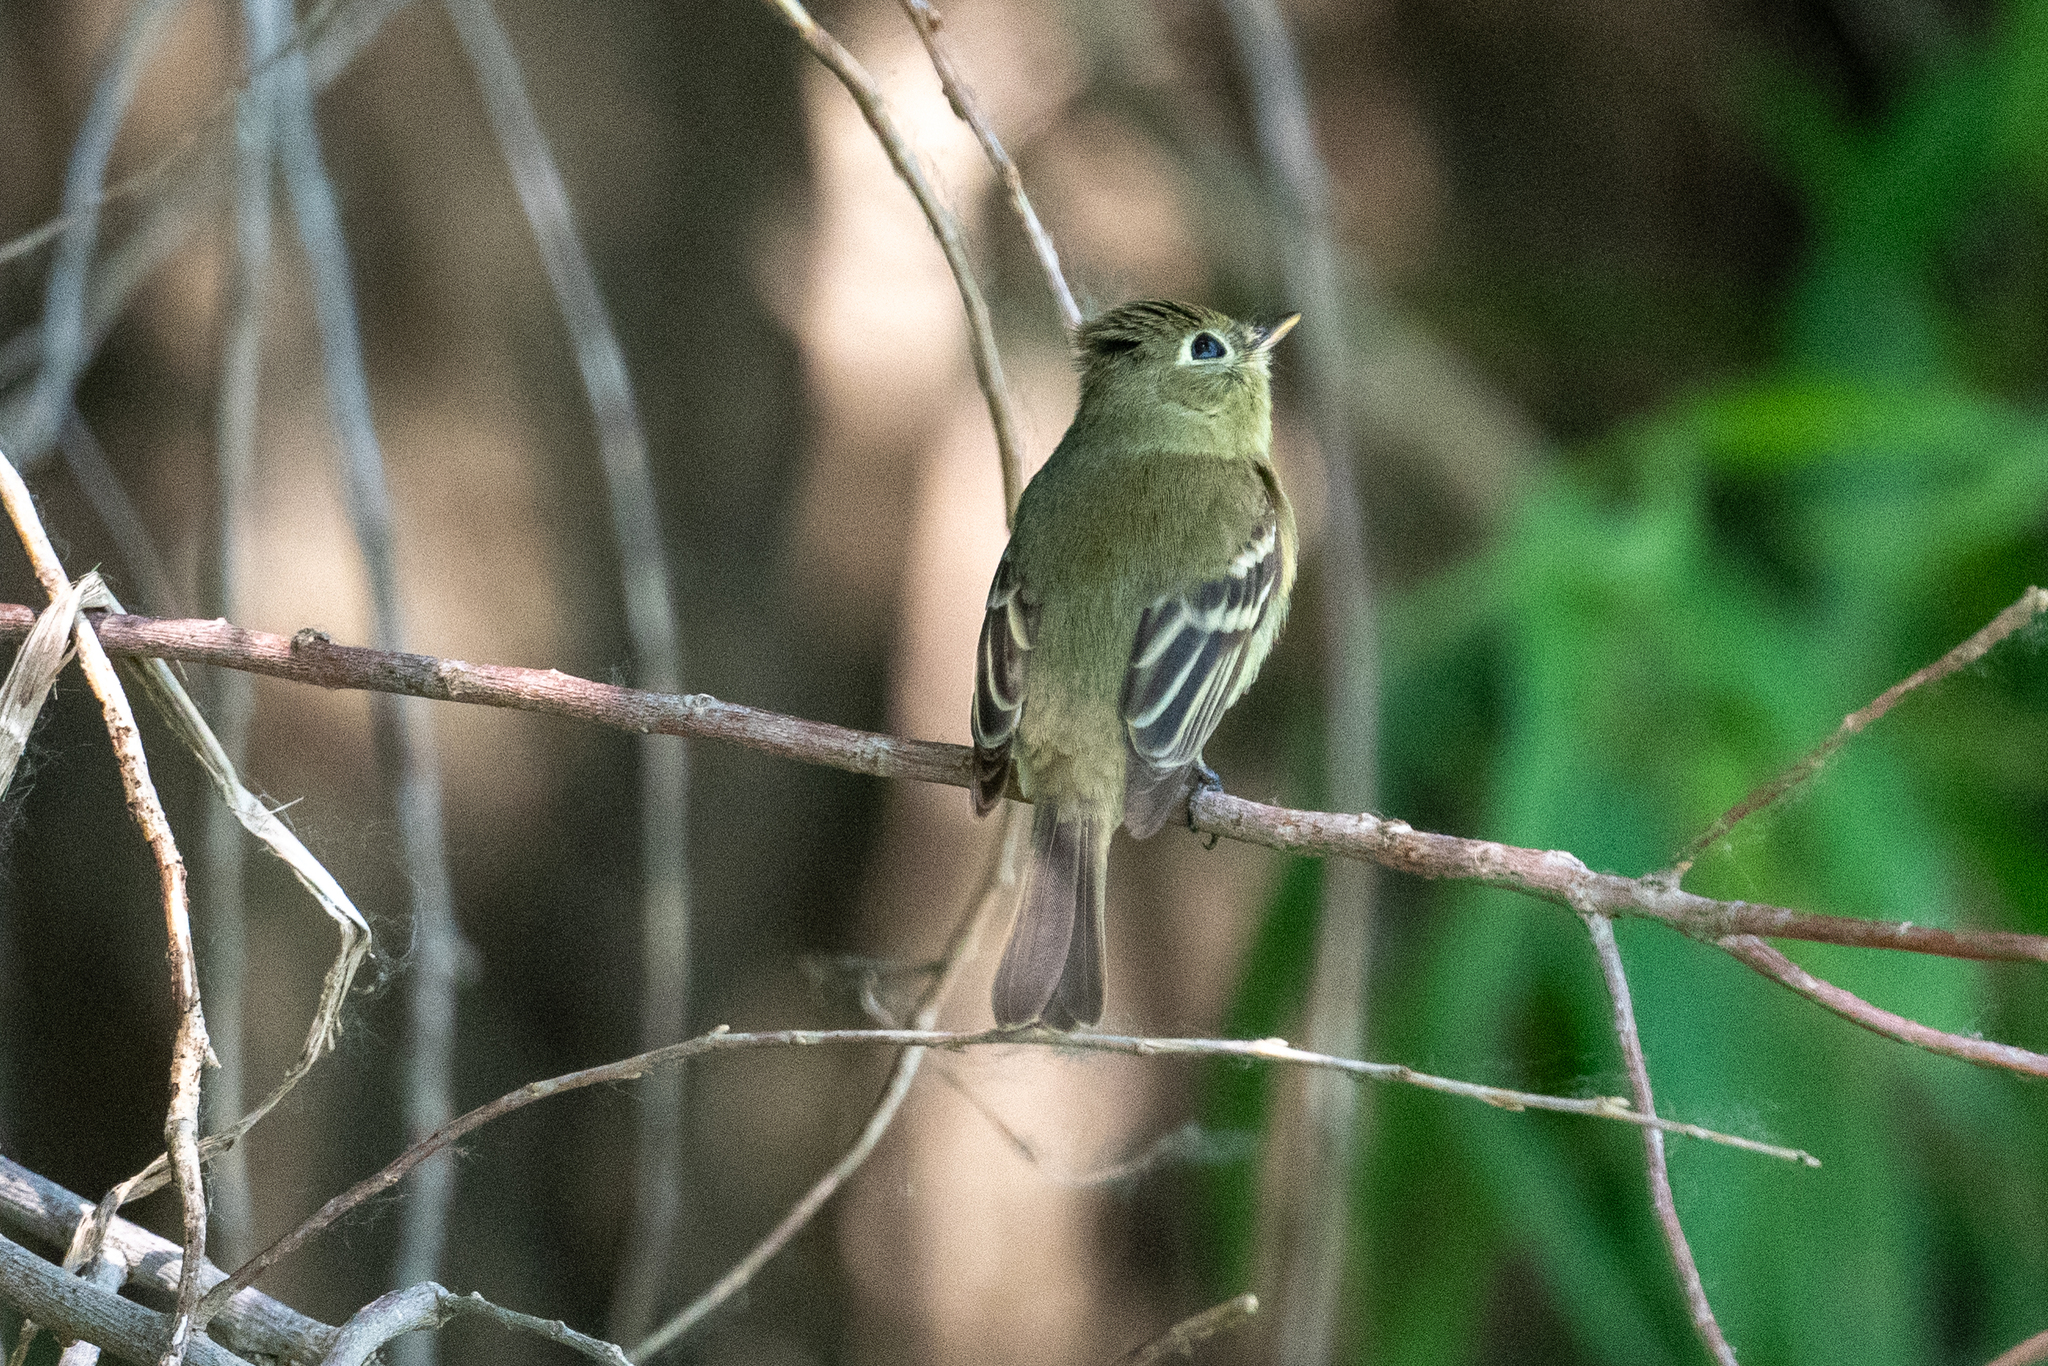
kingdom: Animalia
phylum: Chordata
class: Aves
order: Passeriformes
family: Tyrannidae
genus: Empidonax
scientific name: Empidonax difficilis
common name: Pacific-slope flycatcher
